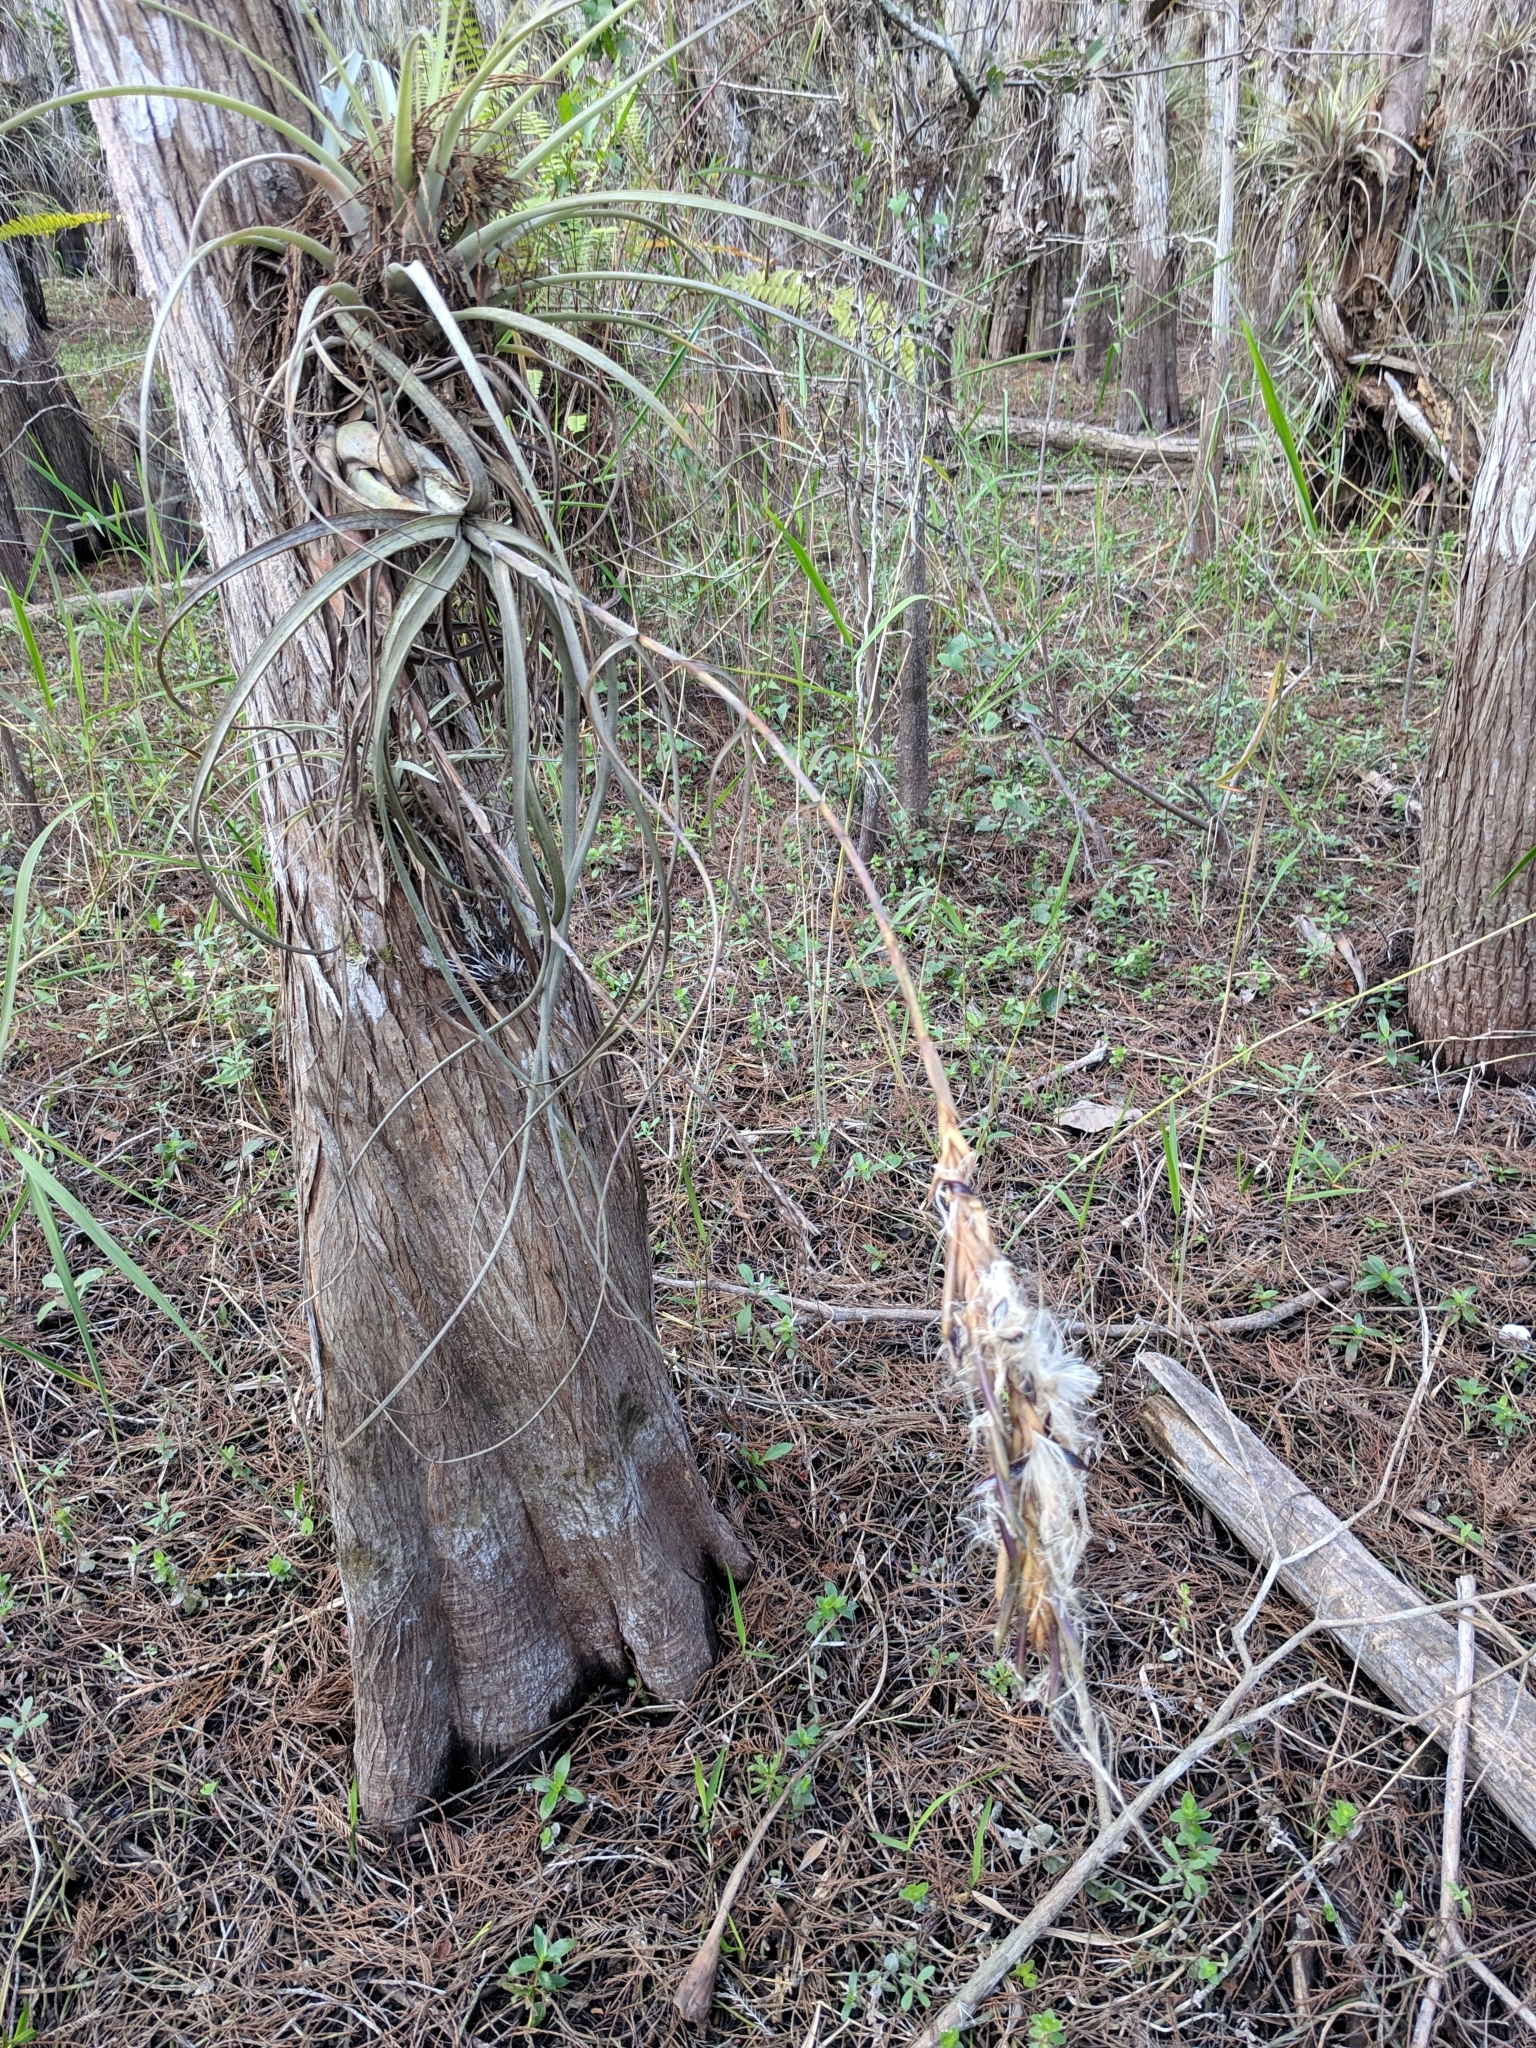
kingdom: Plantae
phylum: Tracheophyta
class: Liliopsida
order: Poales
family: Bromeliaceae
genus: Tillandsia
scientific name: Tillandsia balbisiana
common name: Northern needleleaf
